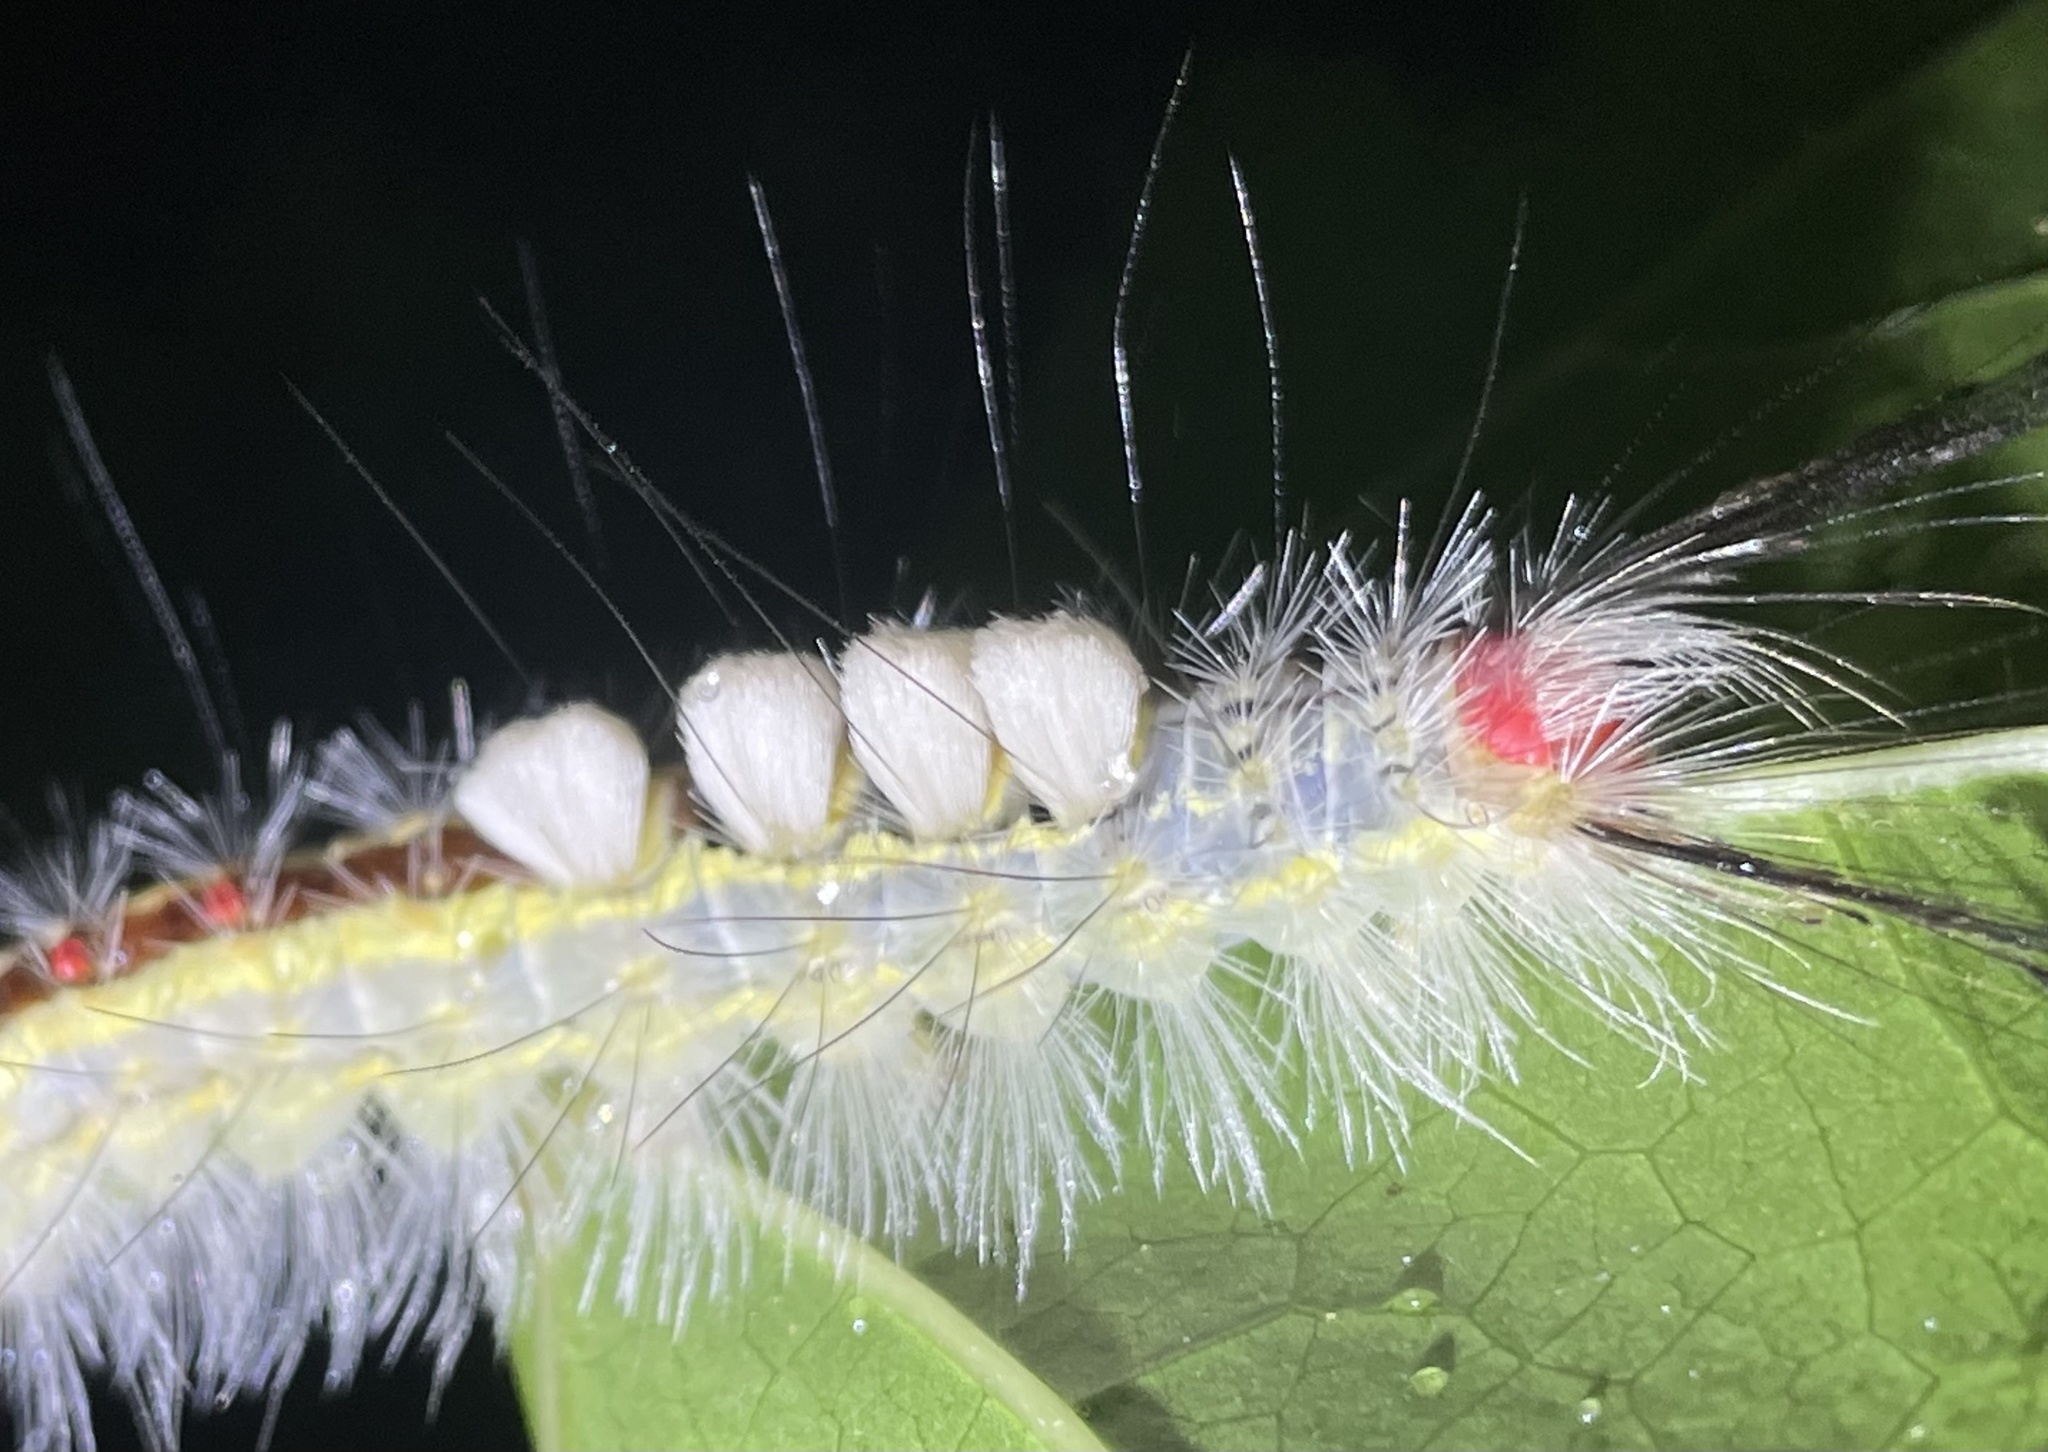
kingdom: Animalia
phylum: Arthropoda
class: Insecta
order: Lepidoptera
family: Erebidae
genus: Orgyia
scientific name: Orgyia leucostigma
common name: White-marked tussock moth
